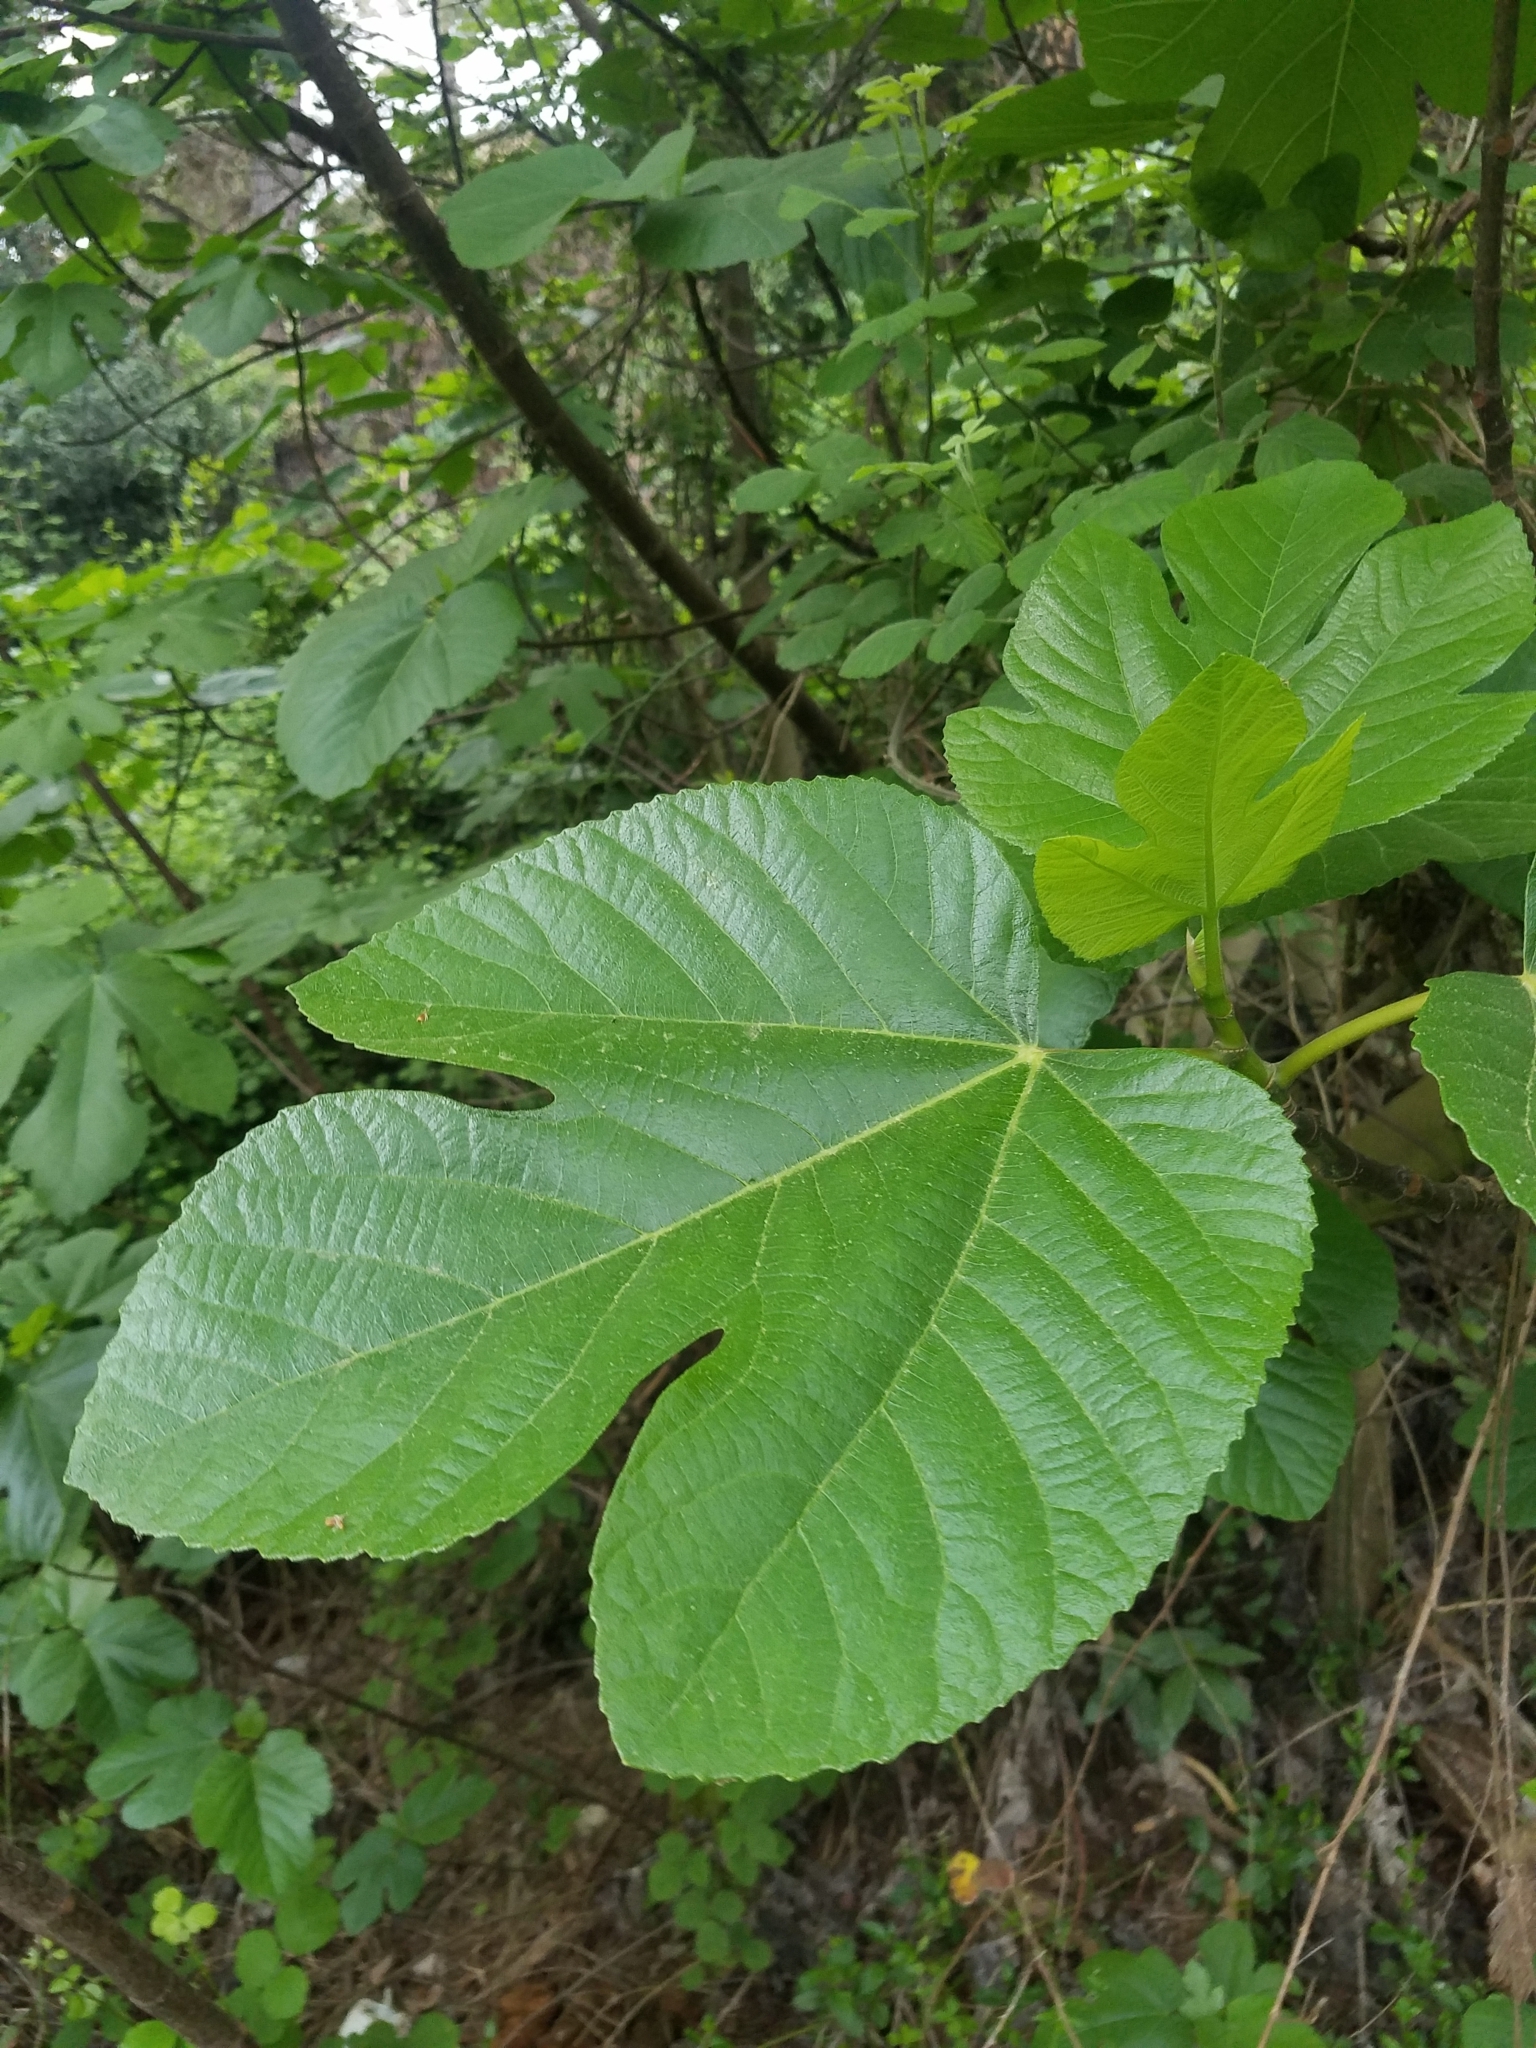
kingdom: Plantae
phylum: Tracheophyta
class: Magnoliopsida
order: Rosales
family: Moraceae
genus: Ficus
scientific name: Ficus carica
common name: Fig
